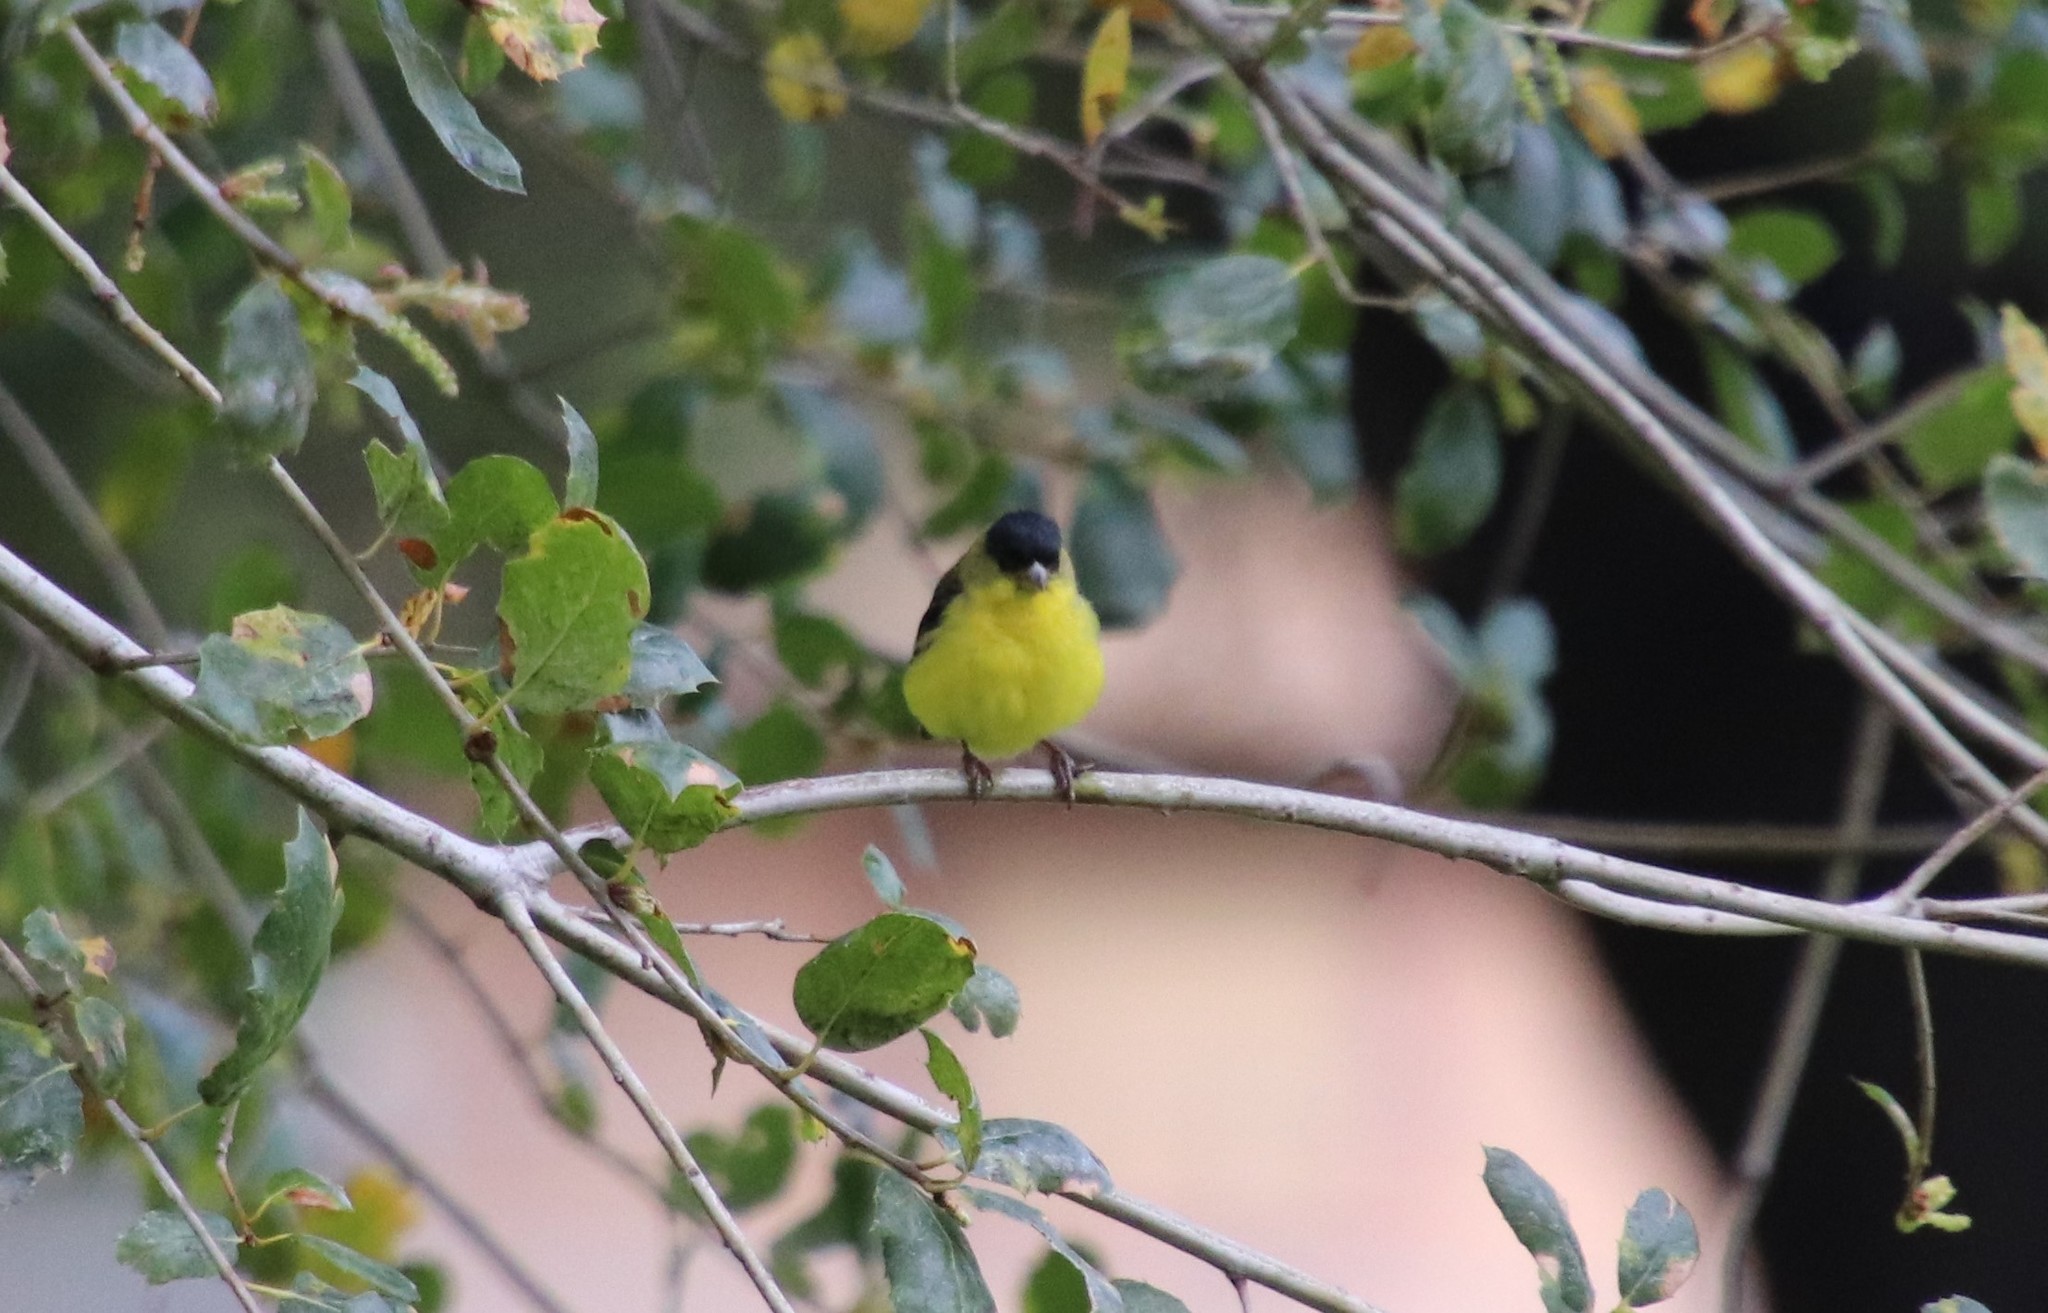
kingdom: Animalia
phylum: Chordata
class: Aves
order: Passeriformes
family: Fringillidae
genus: Spinus
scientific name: Spinus psaltria
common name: Lesser goldfinch
